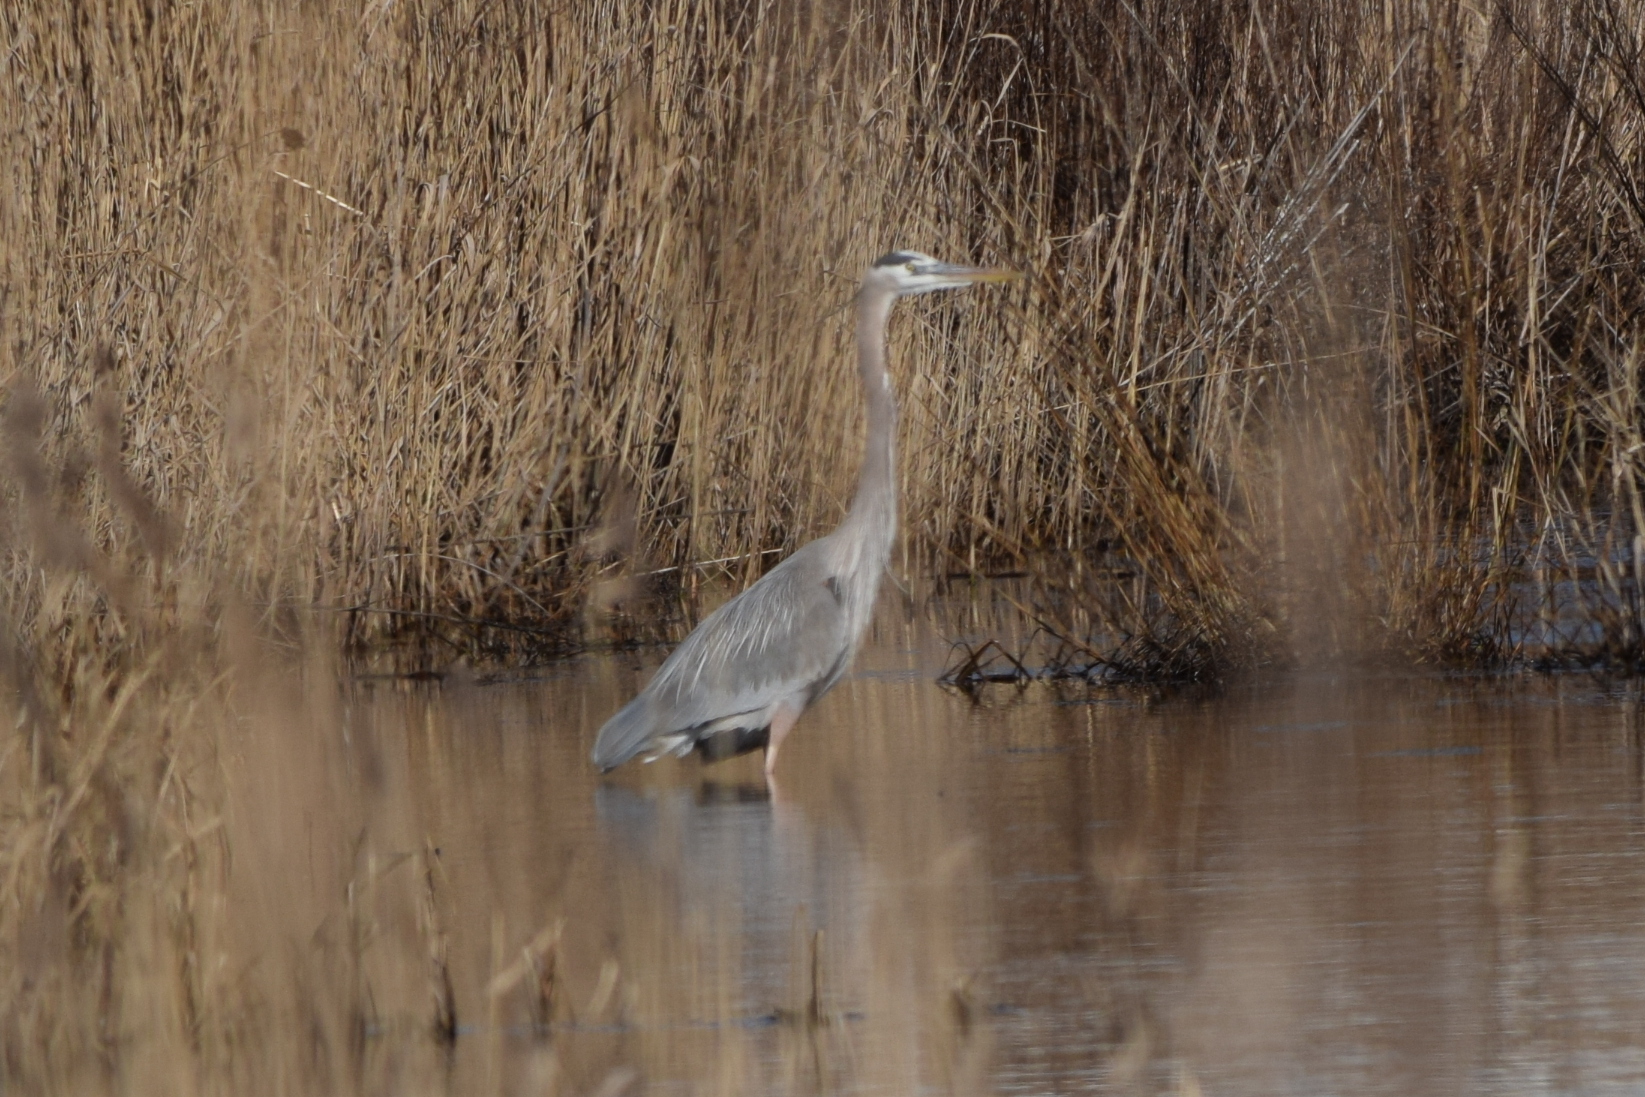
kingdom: Animalia
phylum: Chordata
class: Aves
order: Pelecaniformes
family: Ardeidae
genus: Ardea
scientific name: Ardea herodias
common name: Great blue heron
